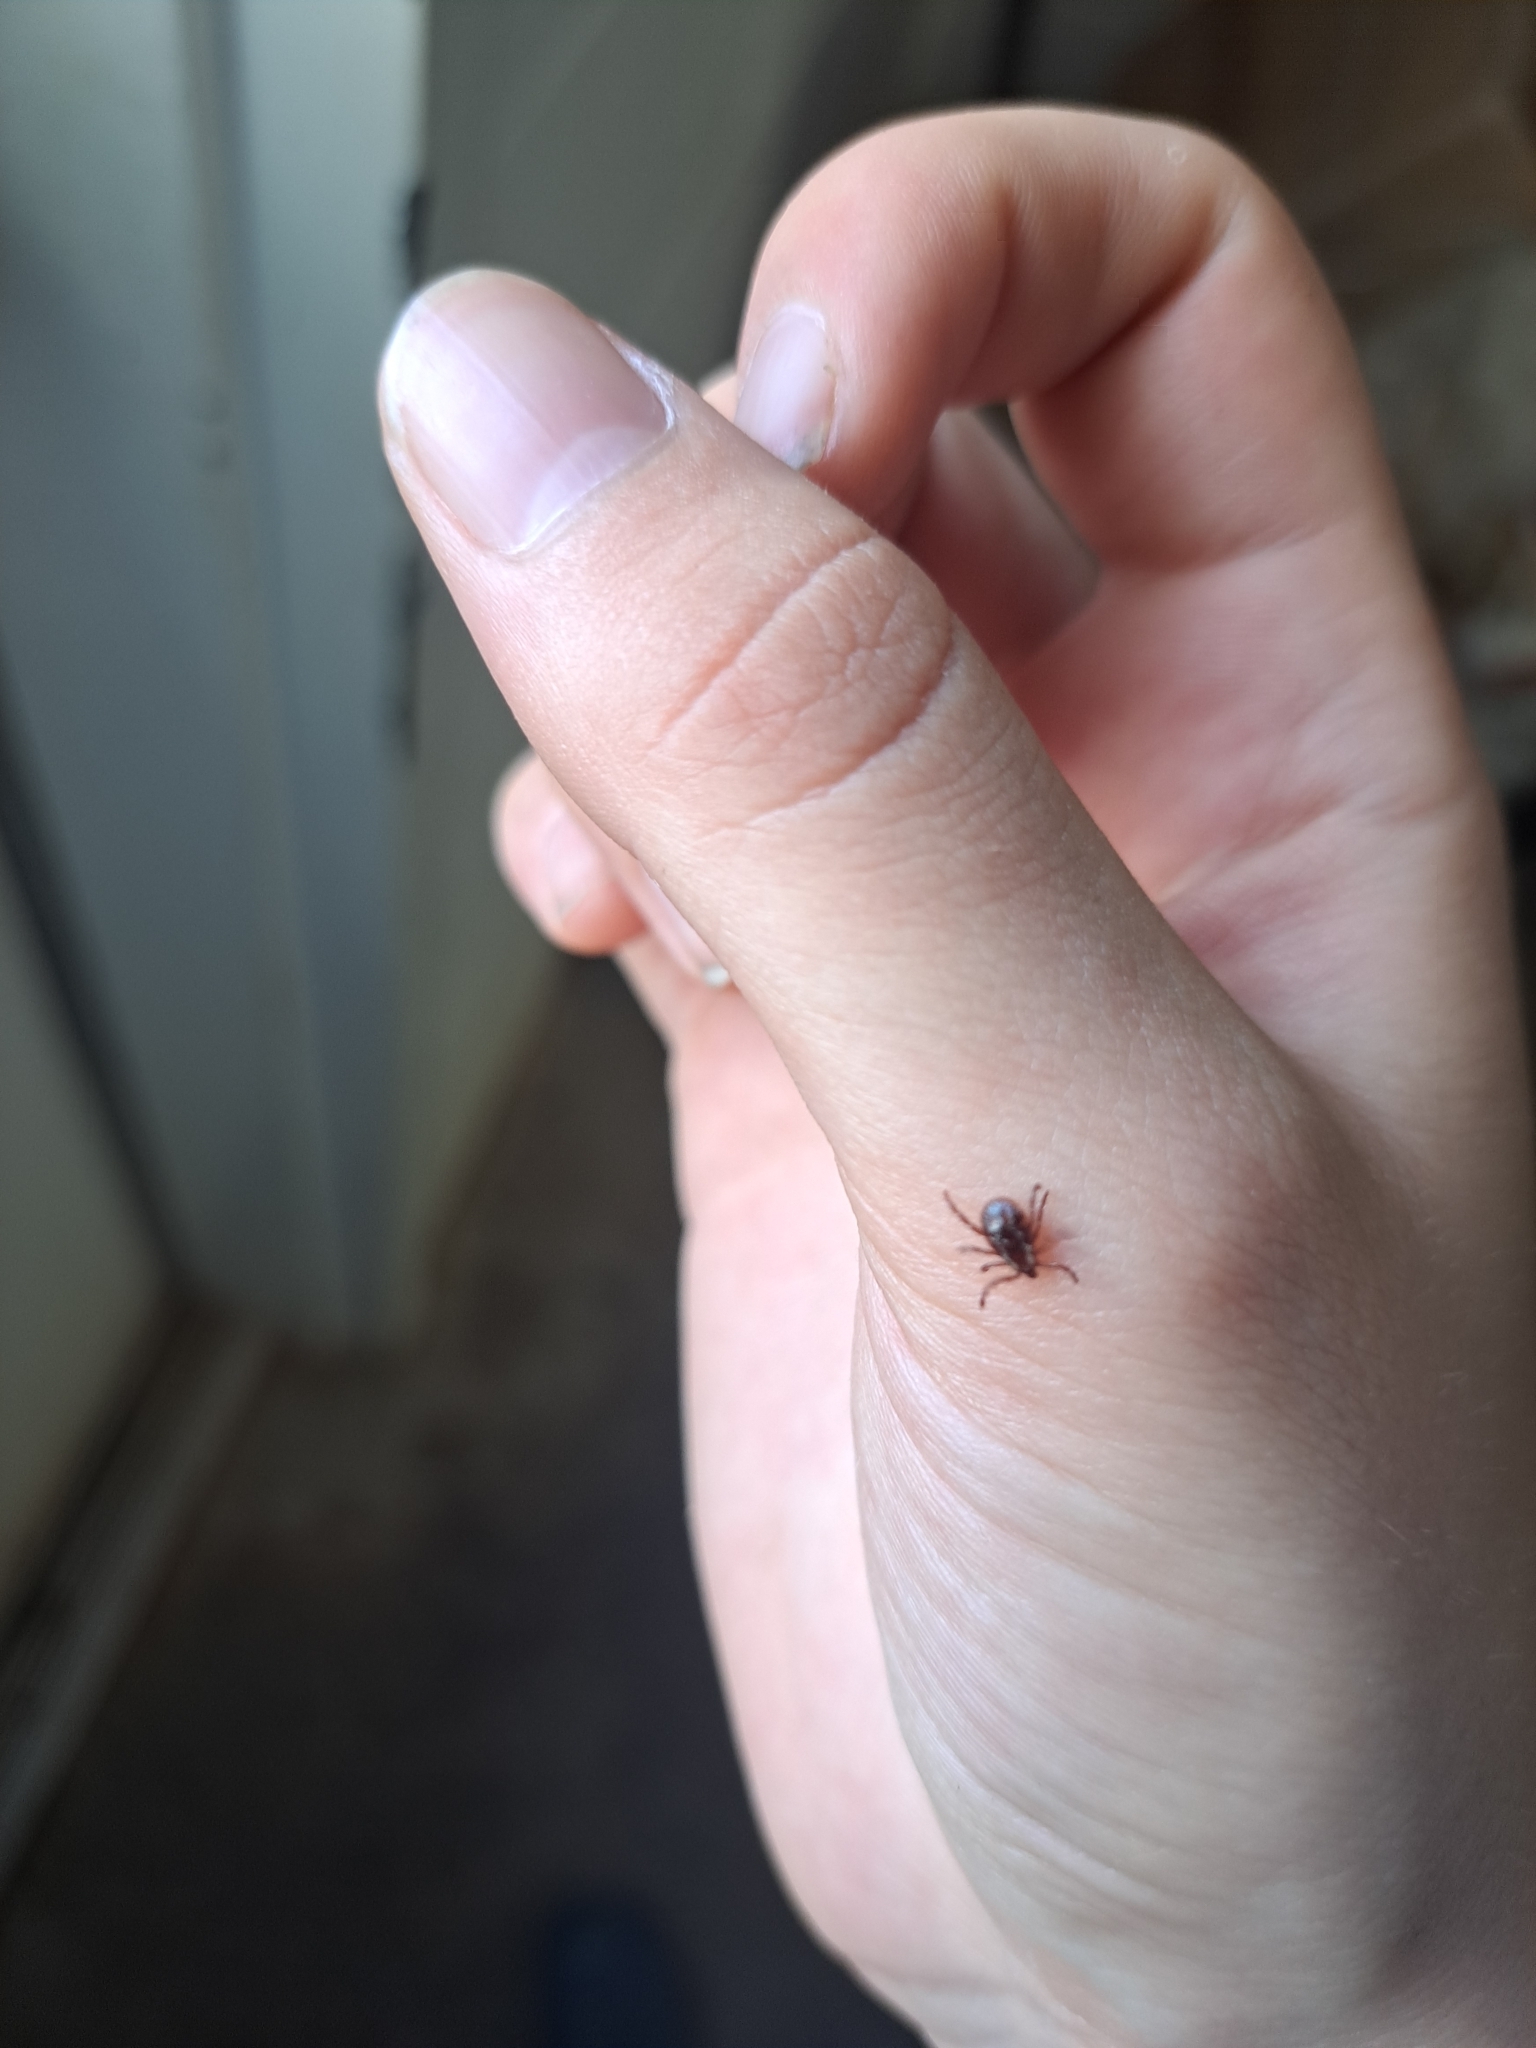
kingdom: Animalia
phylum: Arthropoda
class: Arachnida
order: Ixodida
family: Ixodidae
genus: Dermacentor
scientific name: Dermacentor variabilis
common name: American dog tick
